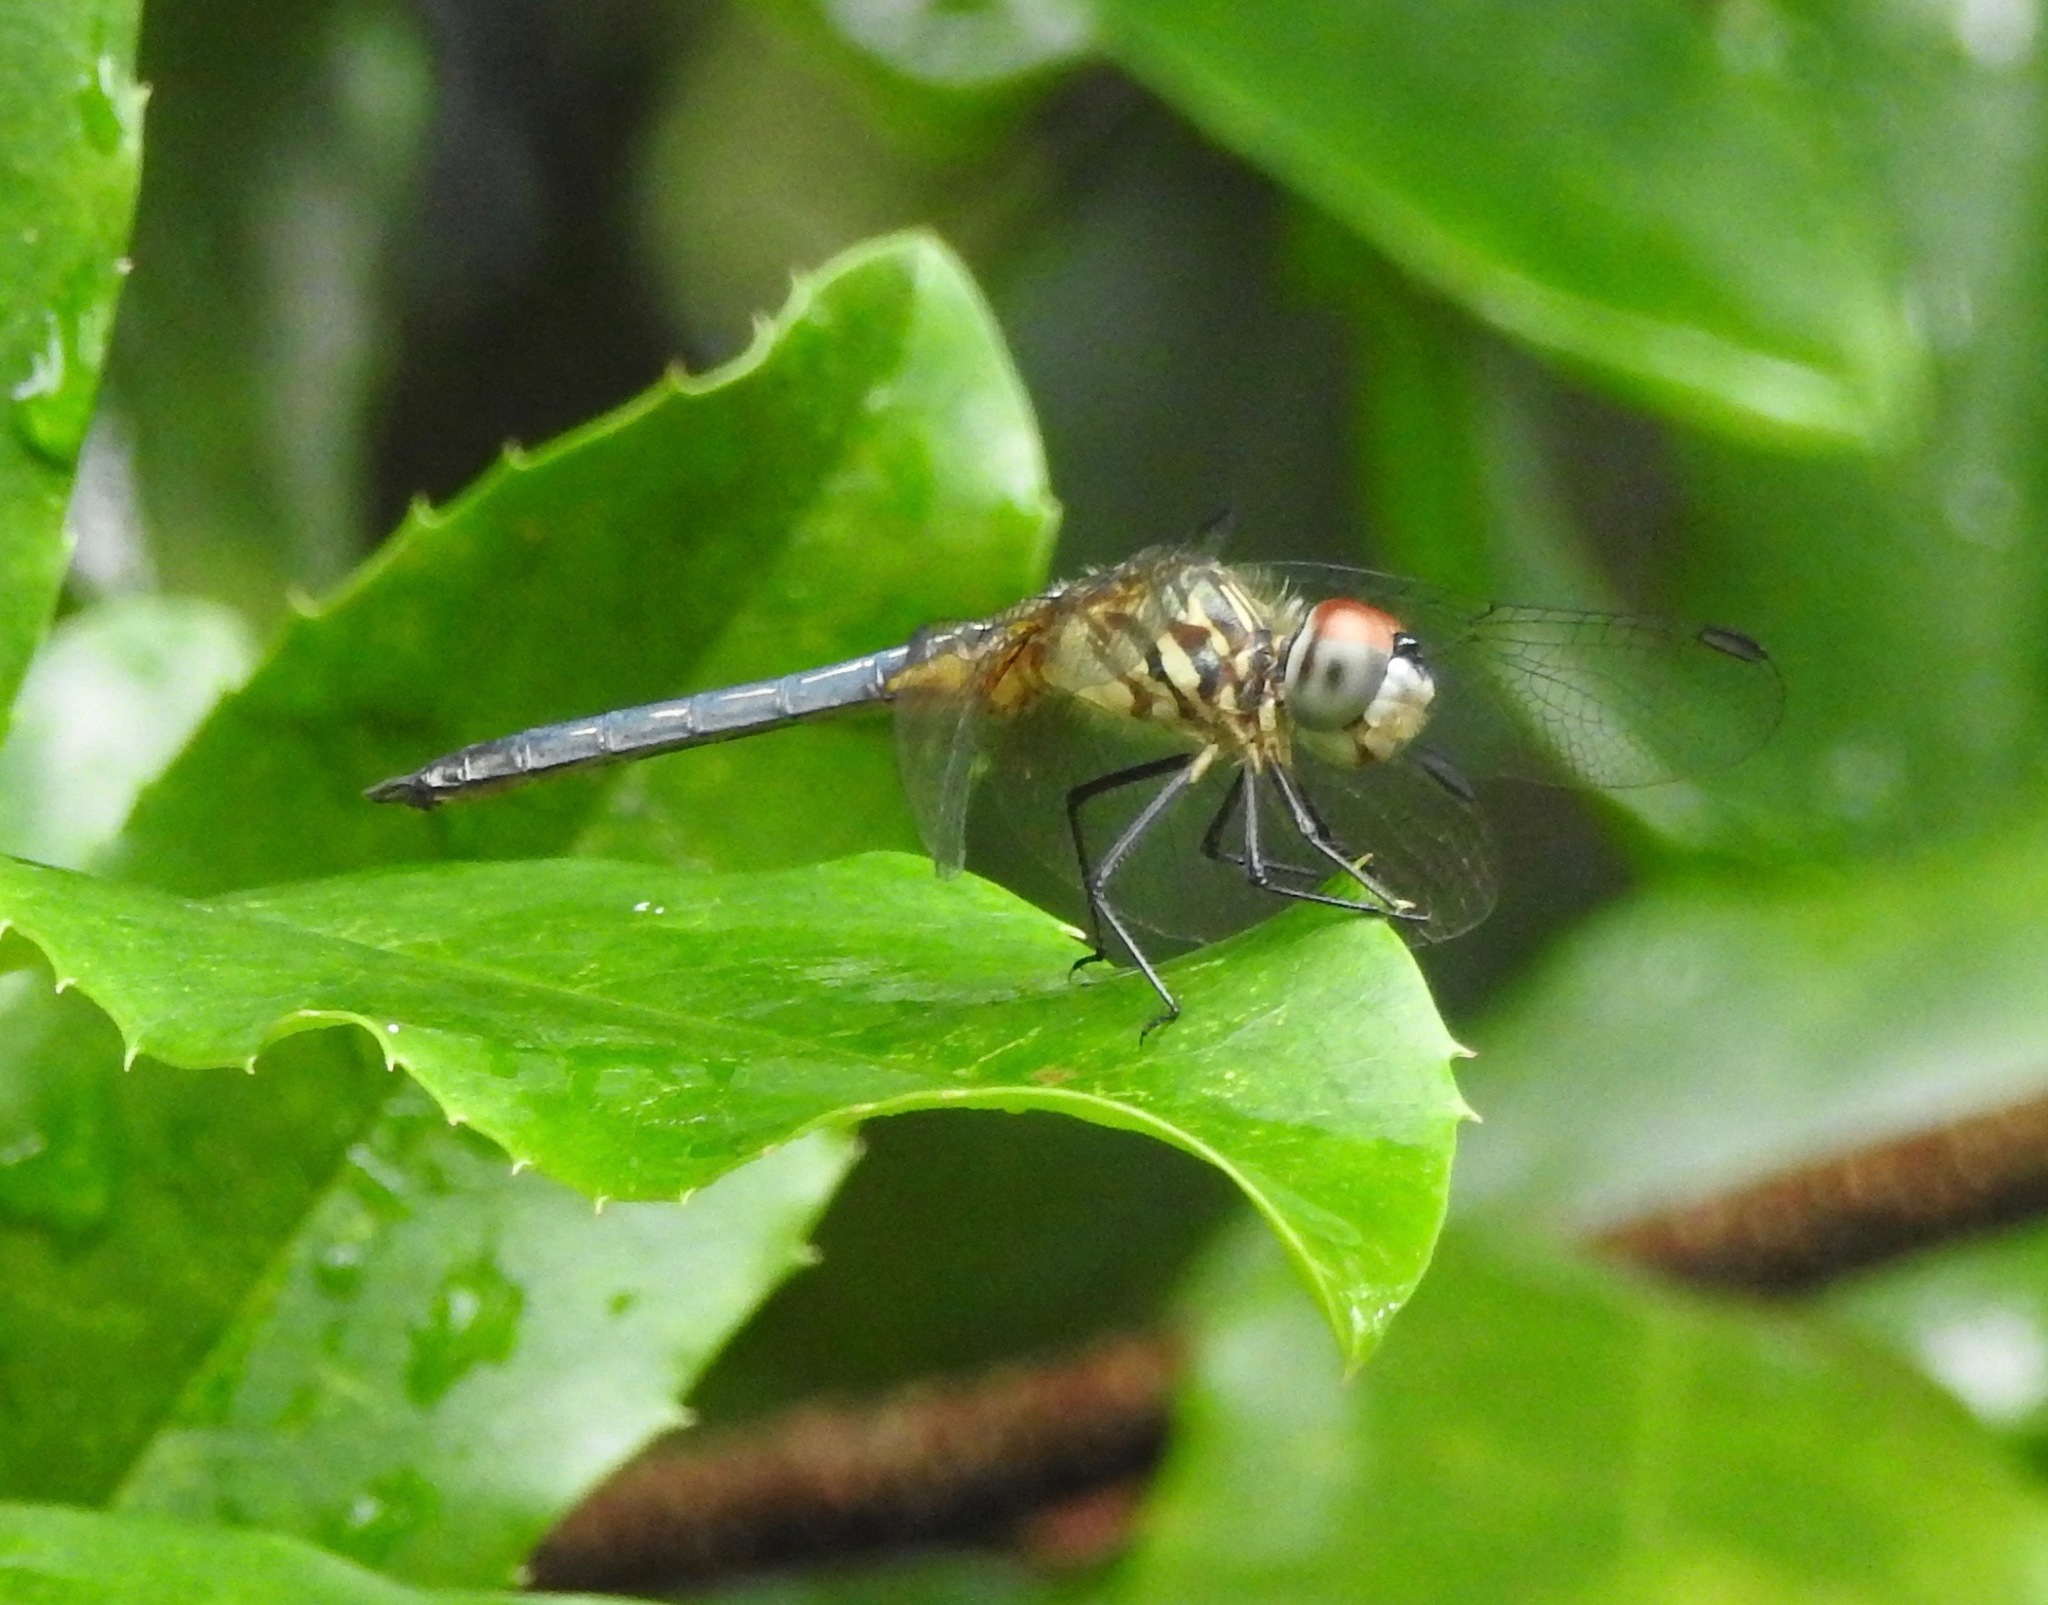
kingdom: Animalia
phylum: Arthropoda
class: Insecta
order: Odonata
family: Libellulidae
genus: Pachydiplax
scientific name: Pachydiplax longipennis
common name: Blue dasher
